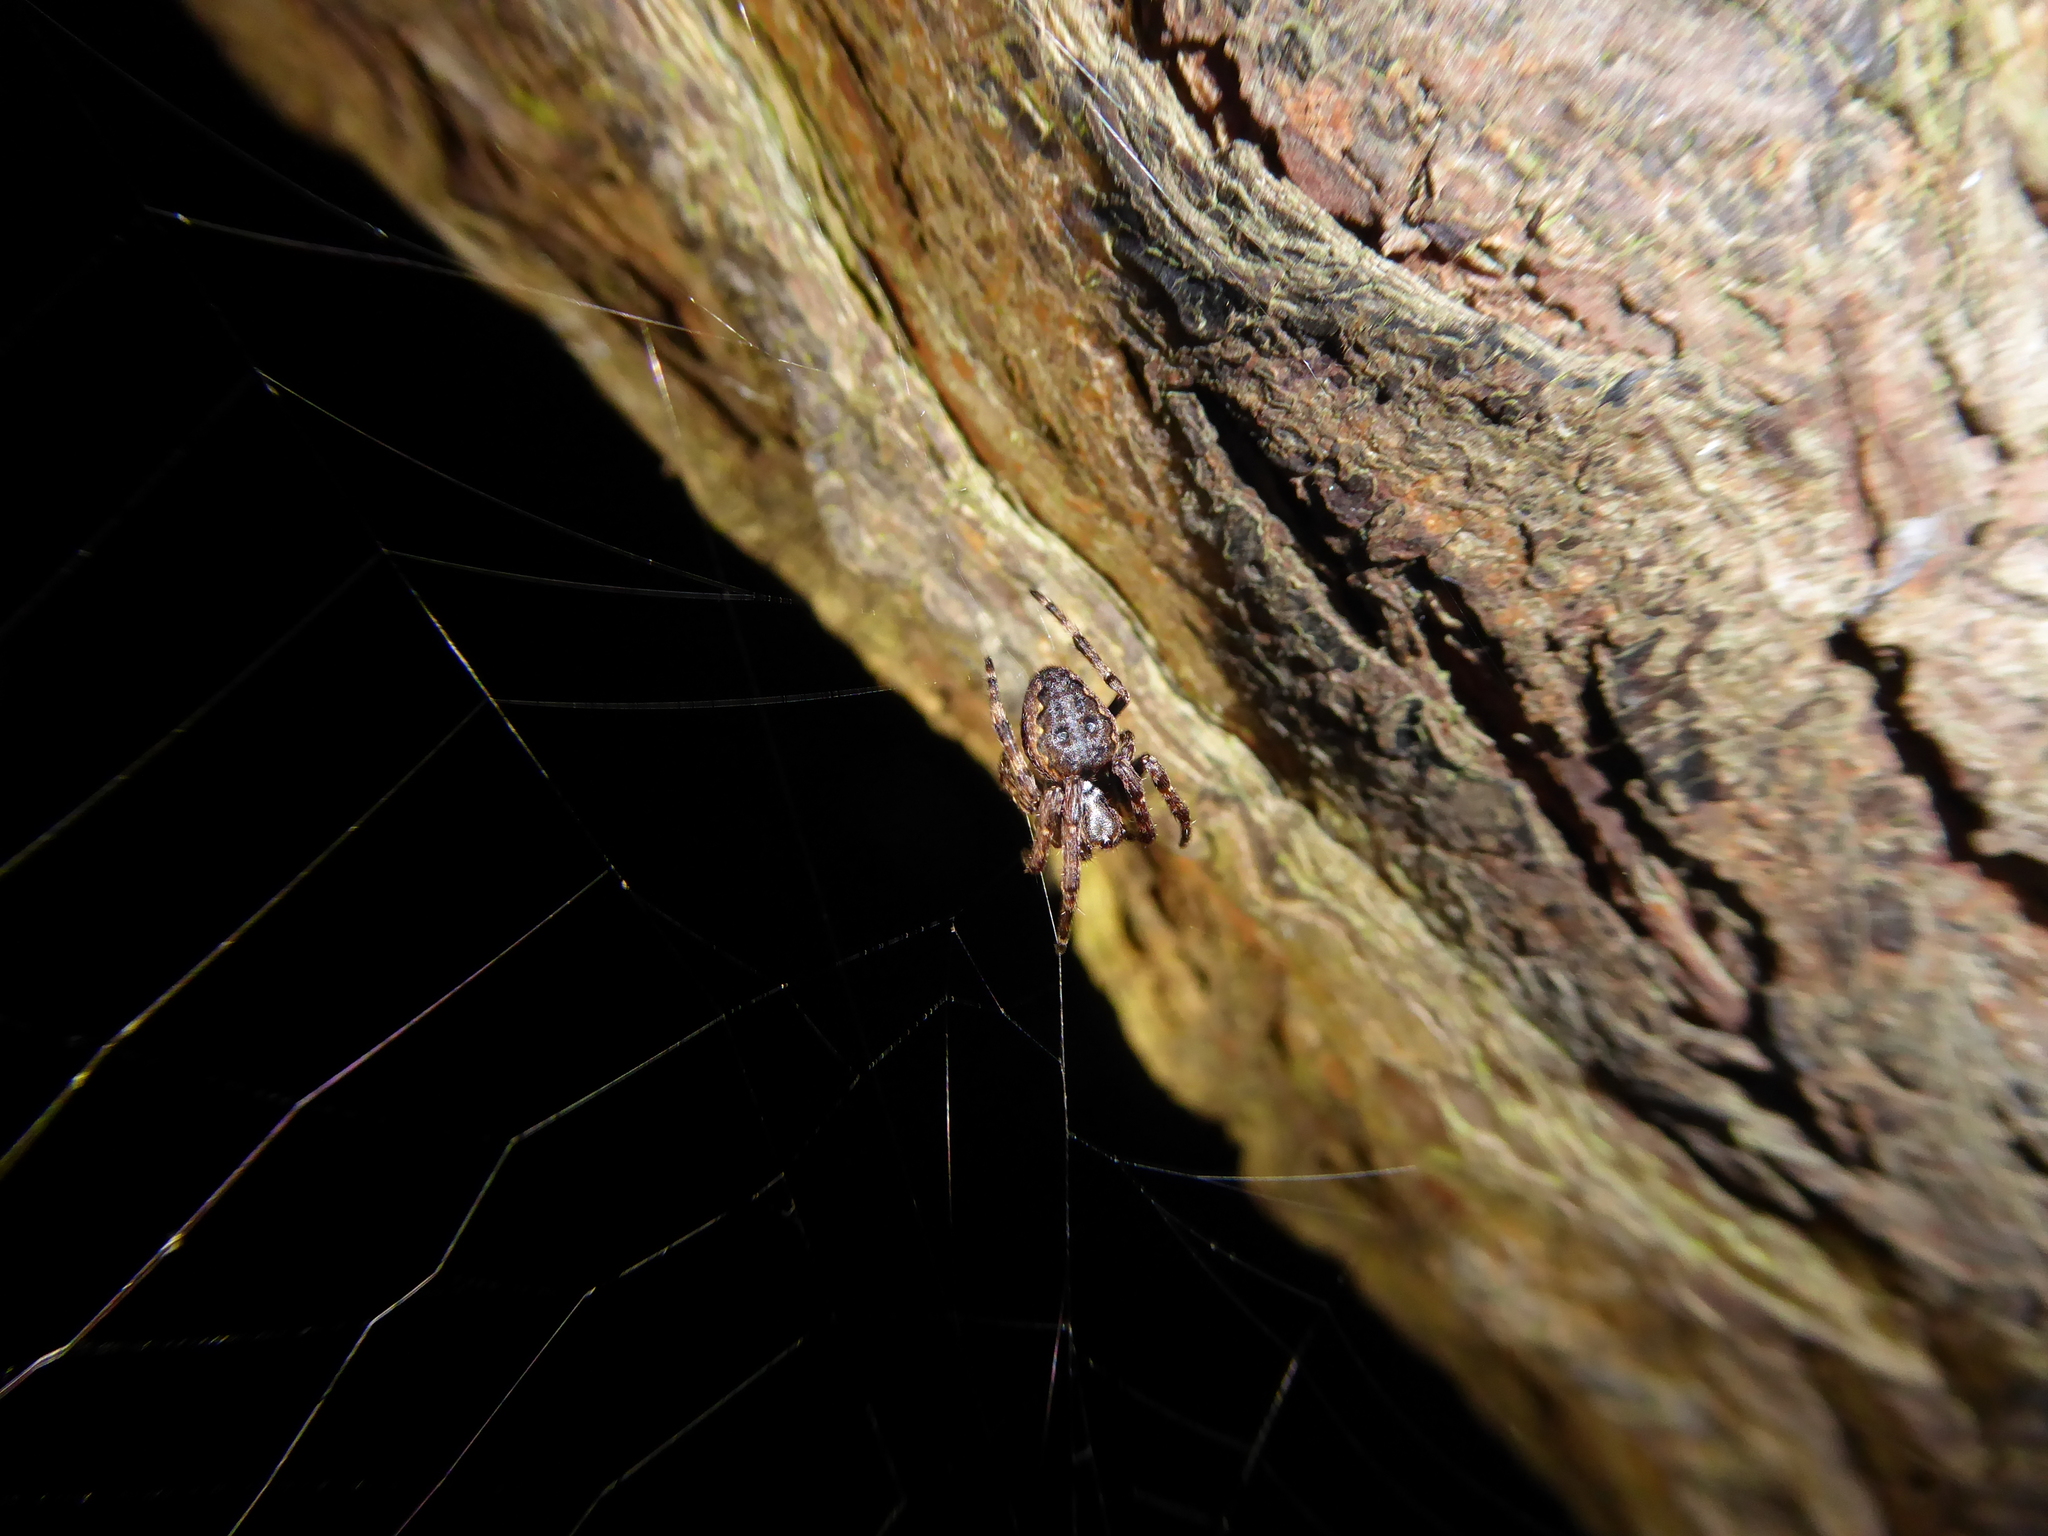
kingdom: Animalia
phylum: Arthropoda
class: Arachnida
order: Araneae
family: Araneidae
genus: Nuctenea
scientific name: Nuctenea umbratica
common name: Toad spider
